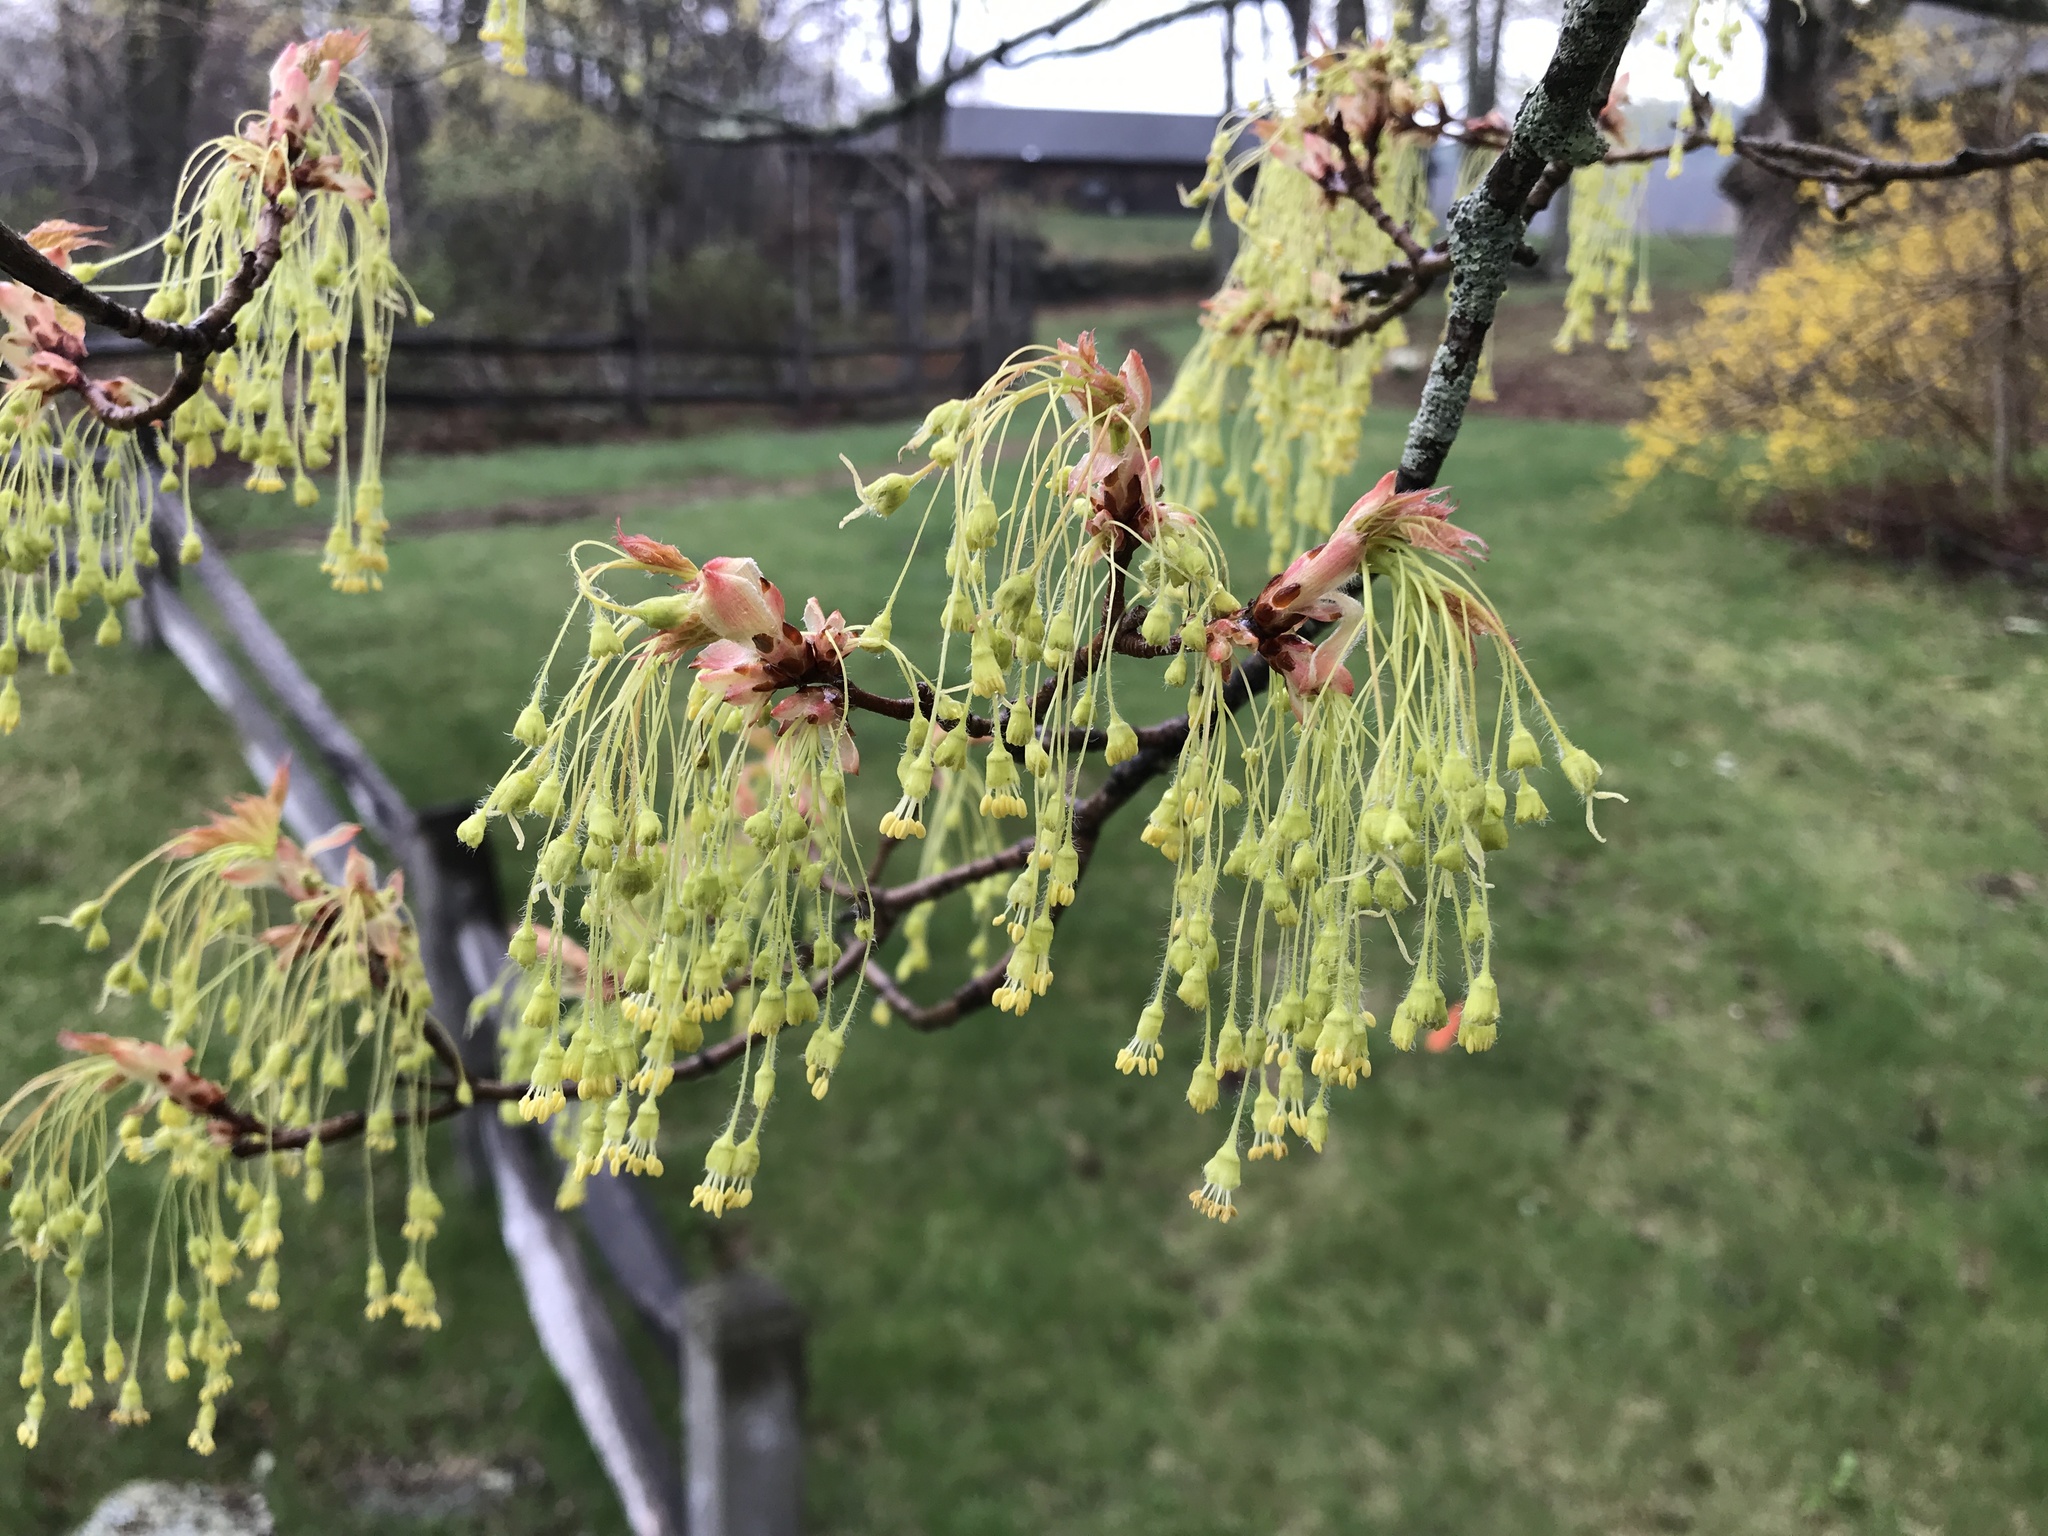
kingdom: Plantae
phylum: Tracheophyta
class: Magnoliopsida
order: Sapindales
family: Sapindaceae
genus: Acer
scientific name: Acer saccharum
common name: Sugar maple
